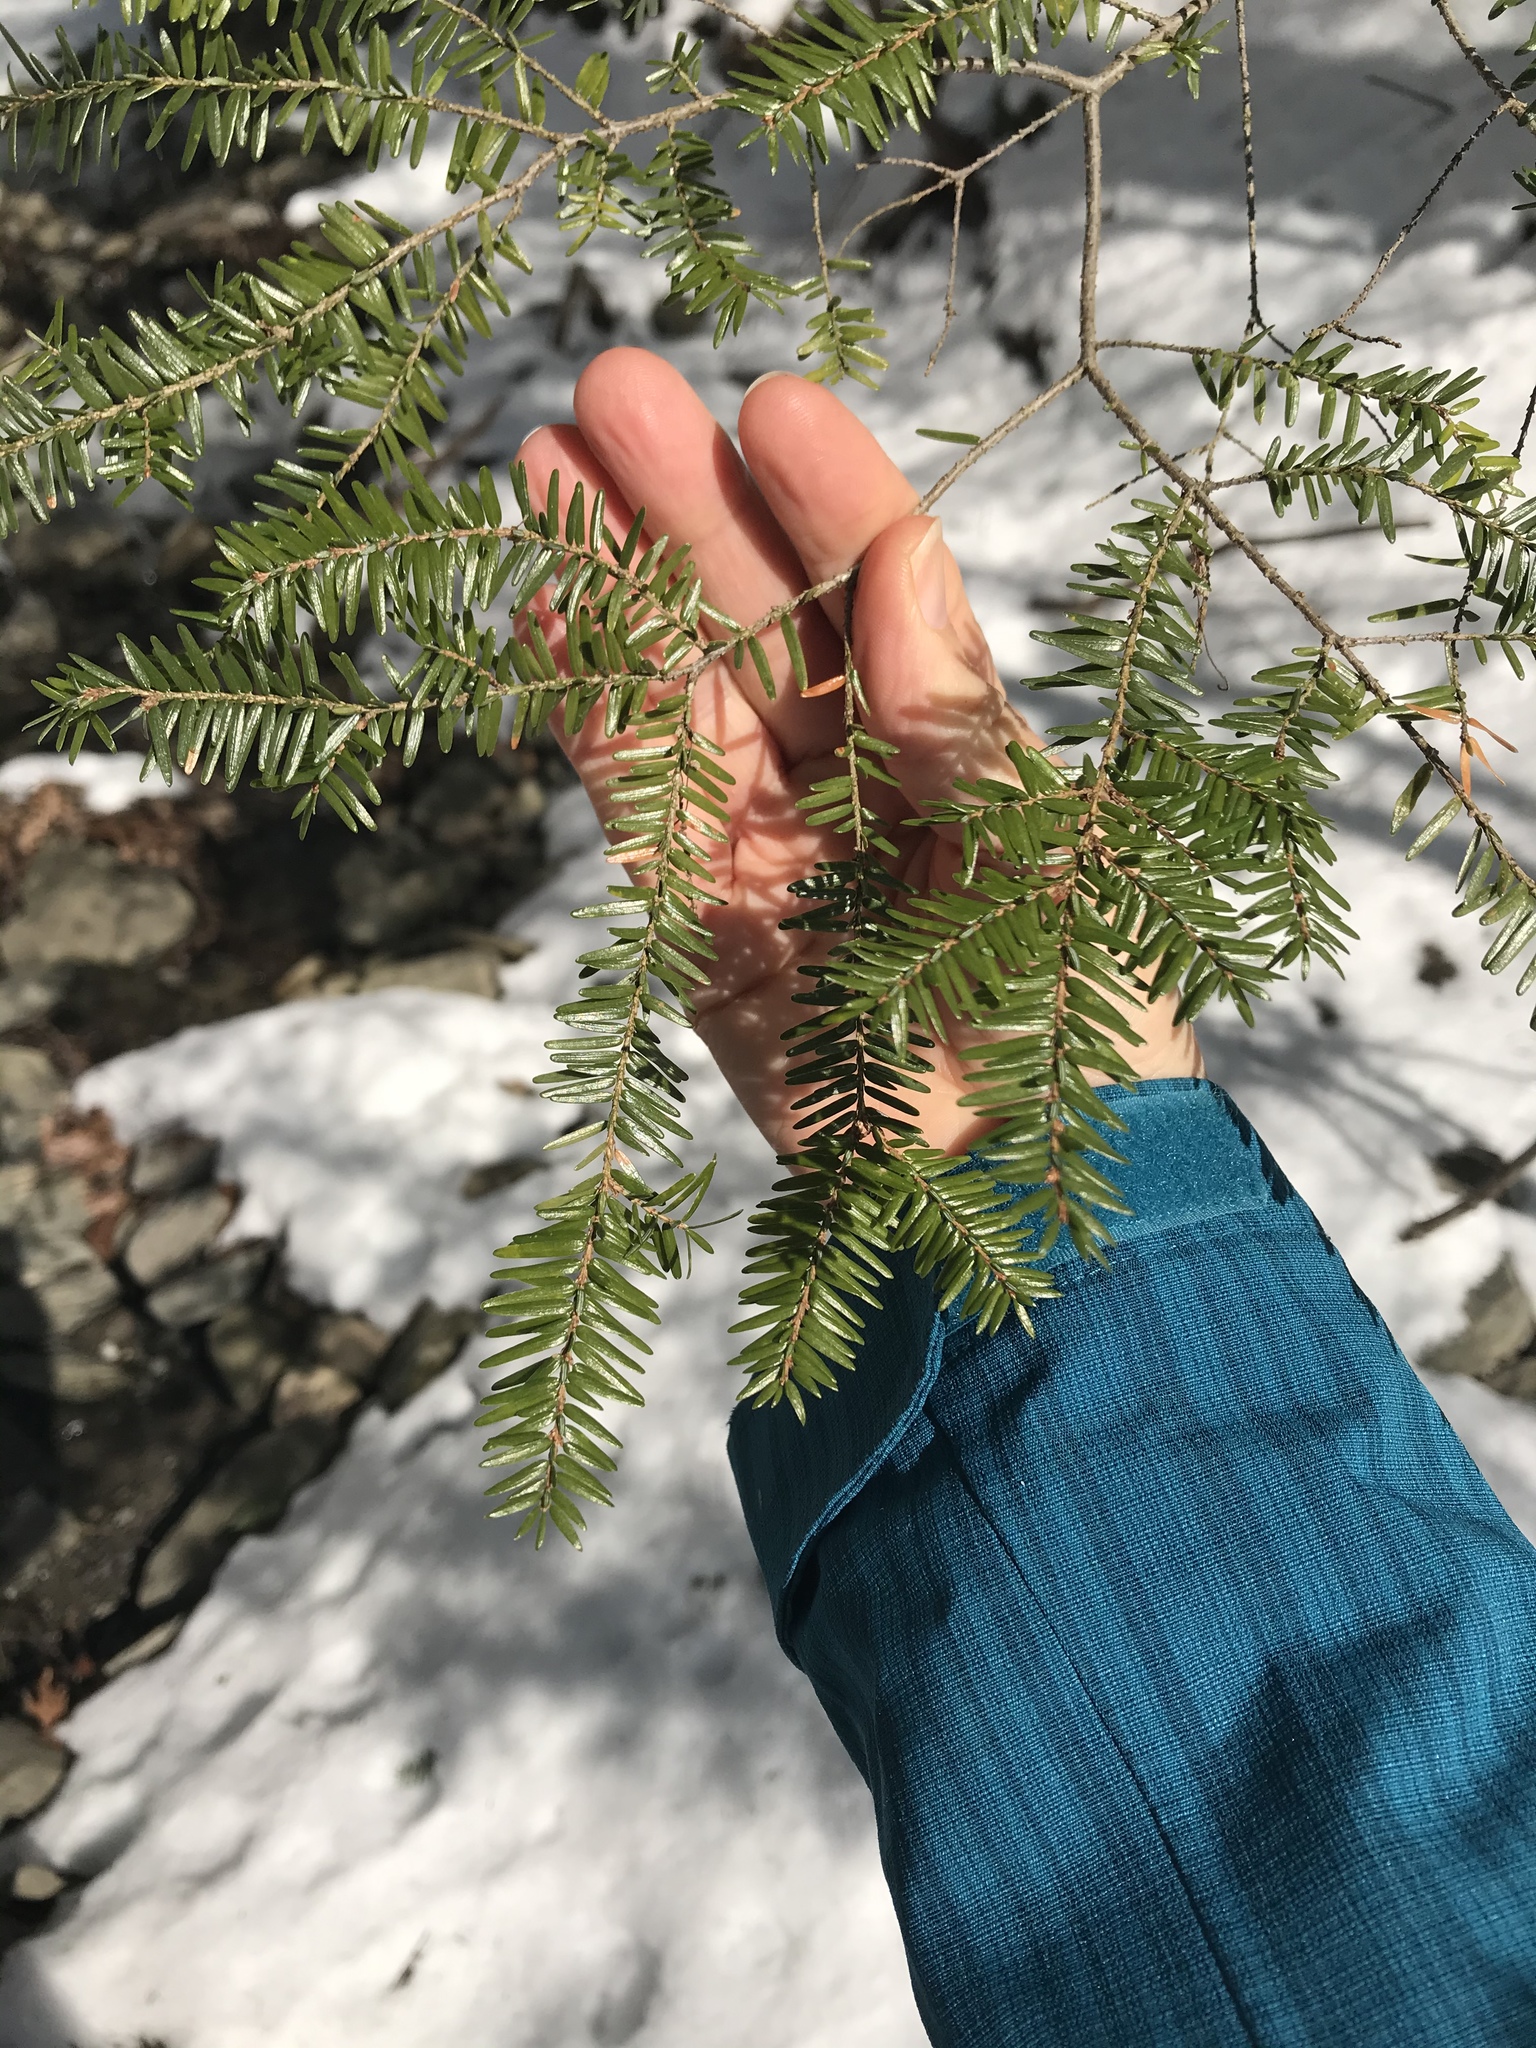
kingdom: Plantae
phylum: Tracheophyta
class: Pinopsida
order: Pinales
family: Pinaceae
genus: Tsuga
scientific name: Tsuga canadensis
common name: Eastern hemlock
